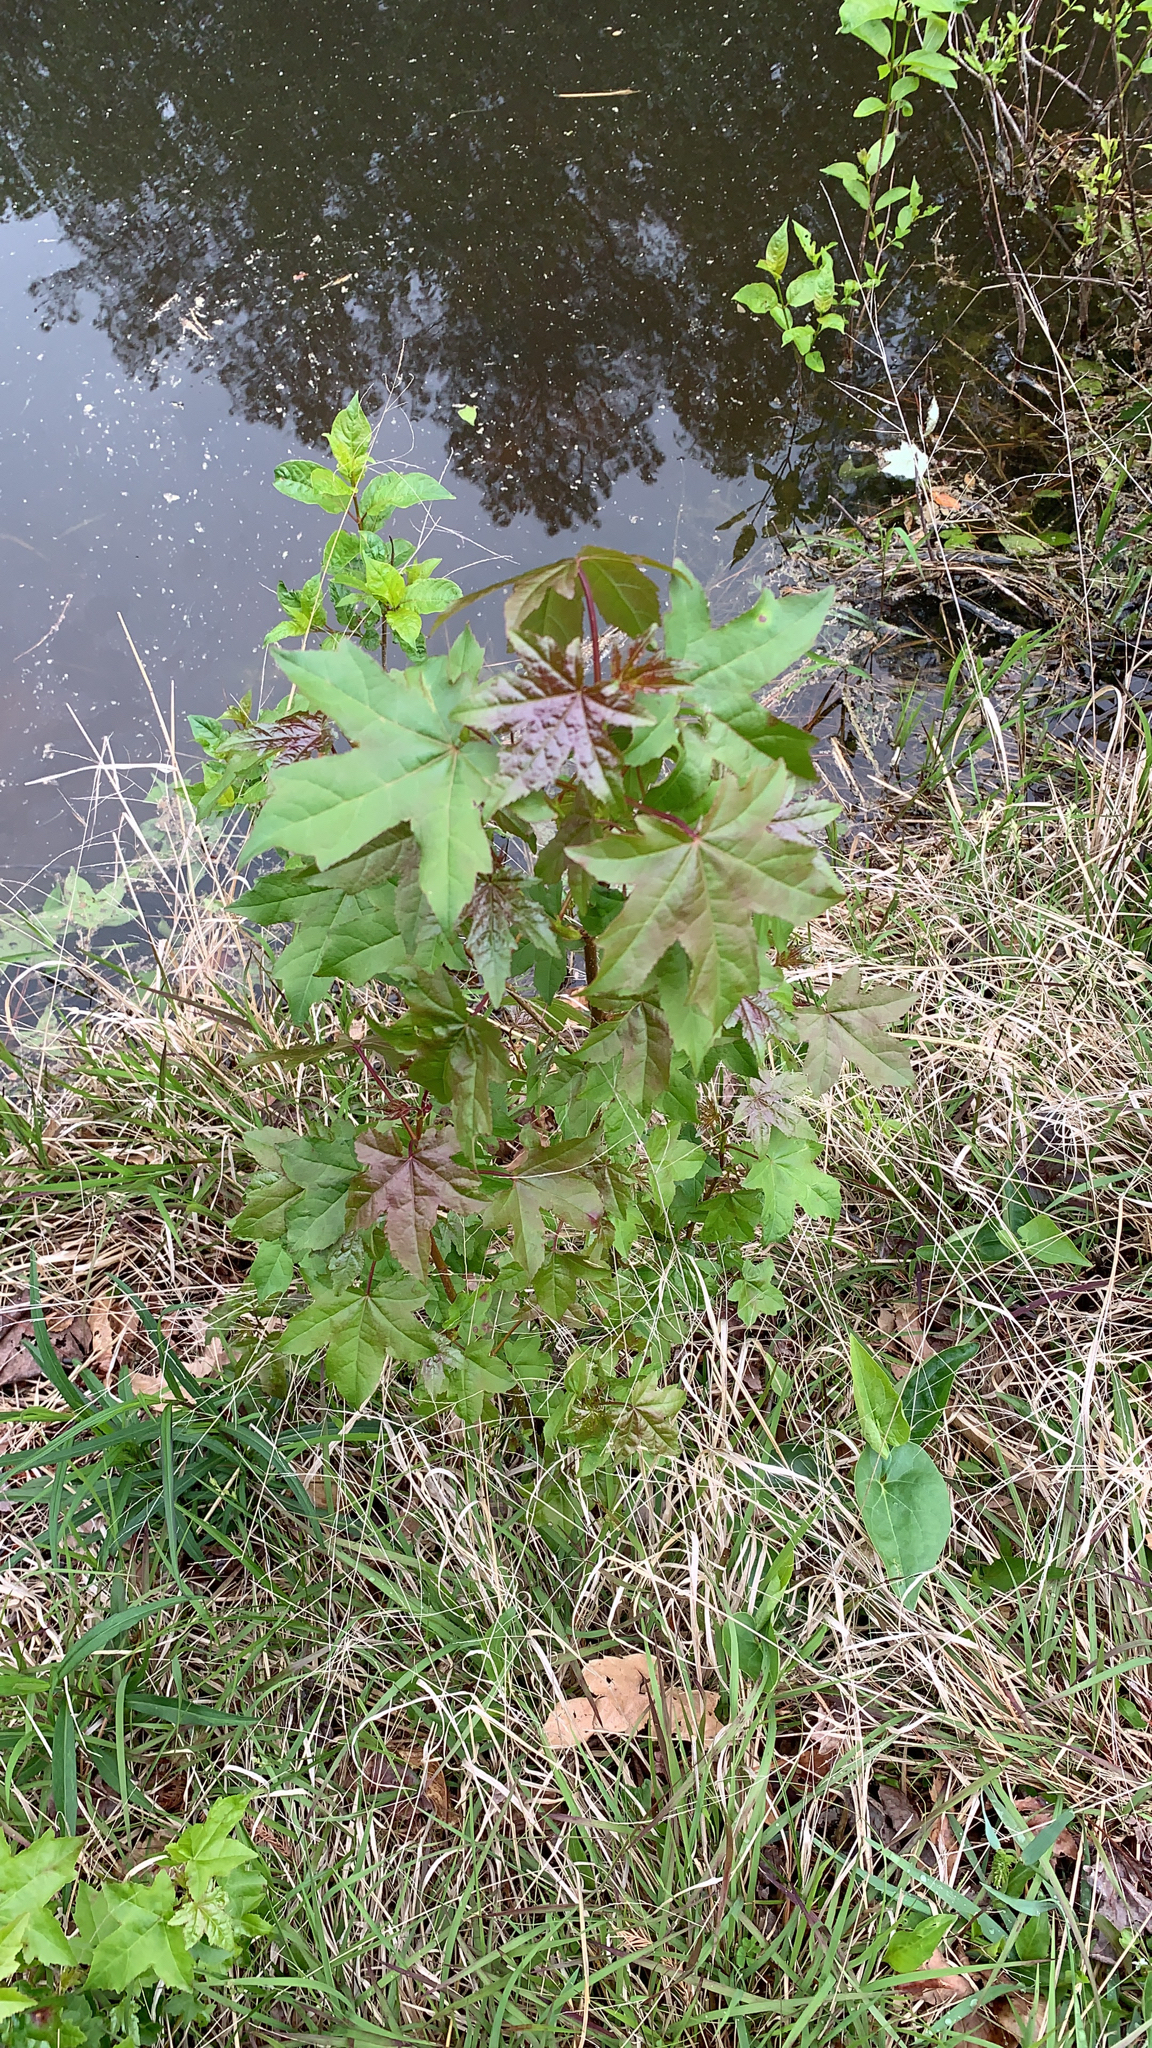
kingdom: Plantae
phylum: Tracheophyta
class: Magnoliopsida
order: Saxifragales
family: Altingiaceae
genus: Liquidambar
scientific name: Liquidambar styraciflua
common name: Sweet gum
